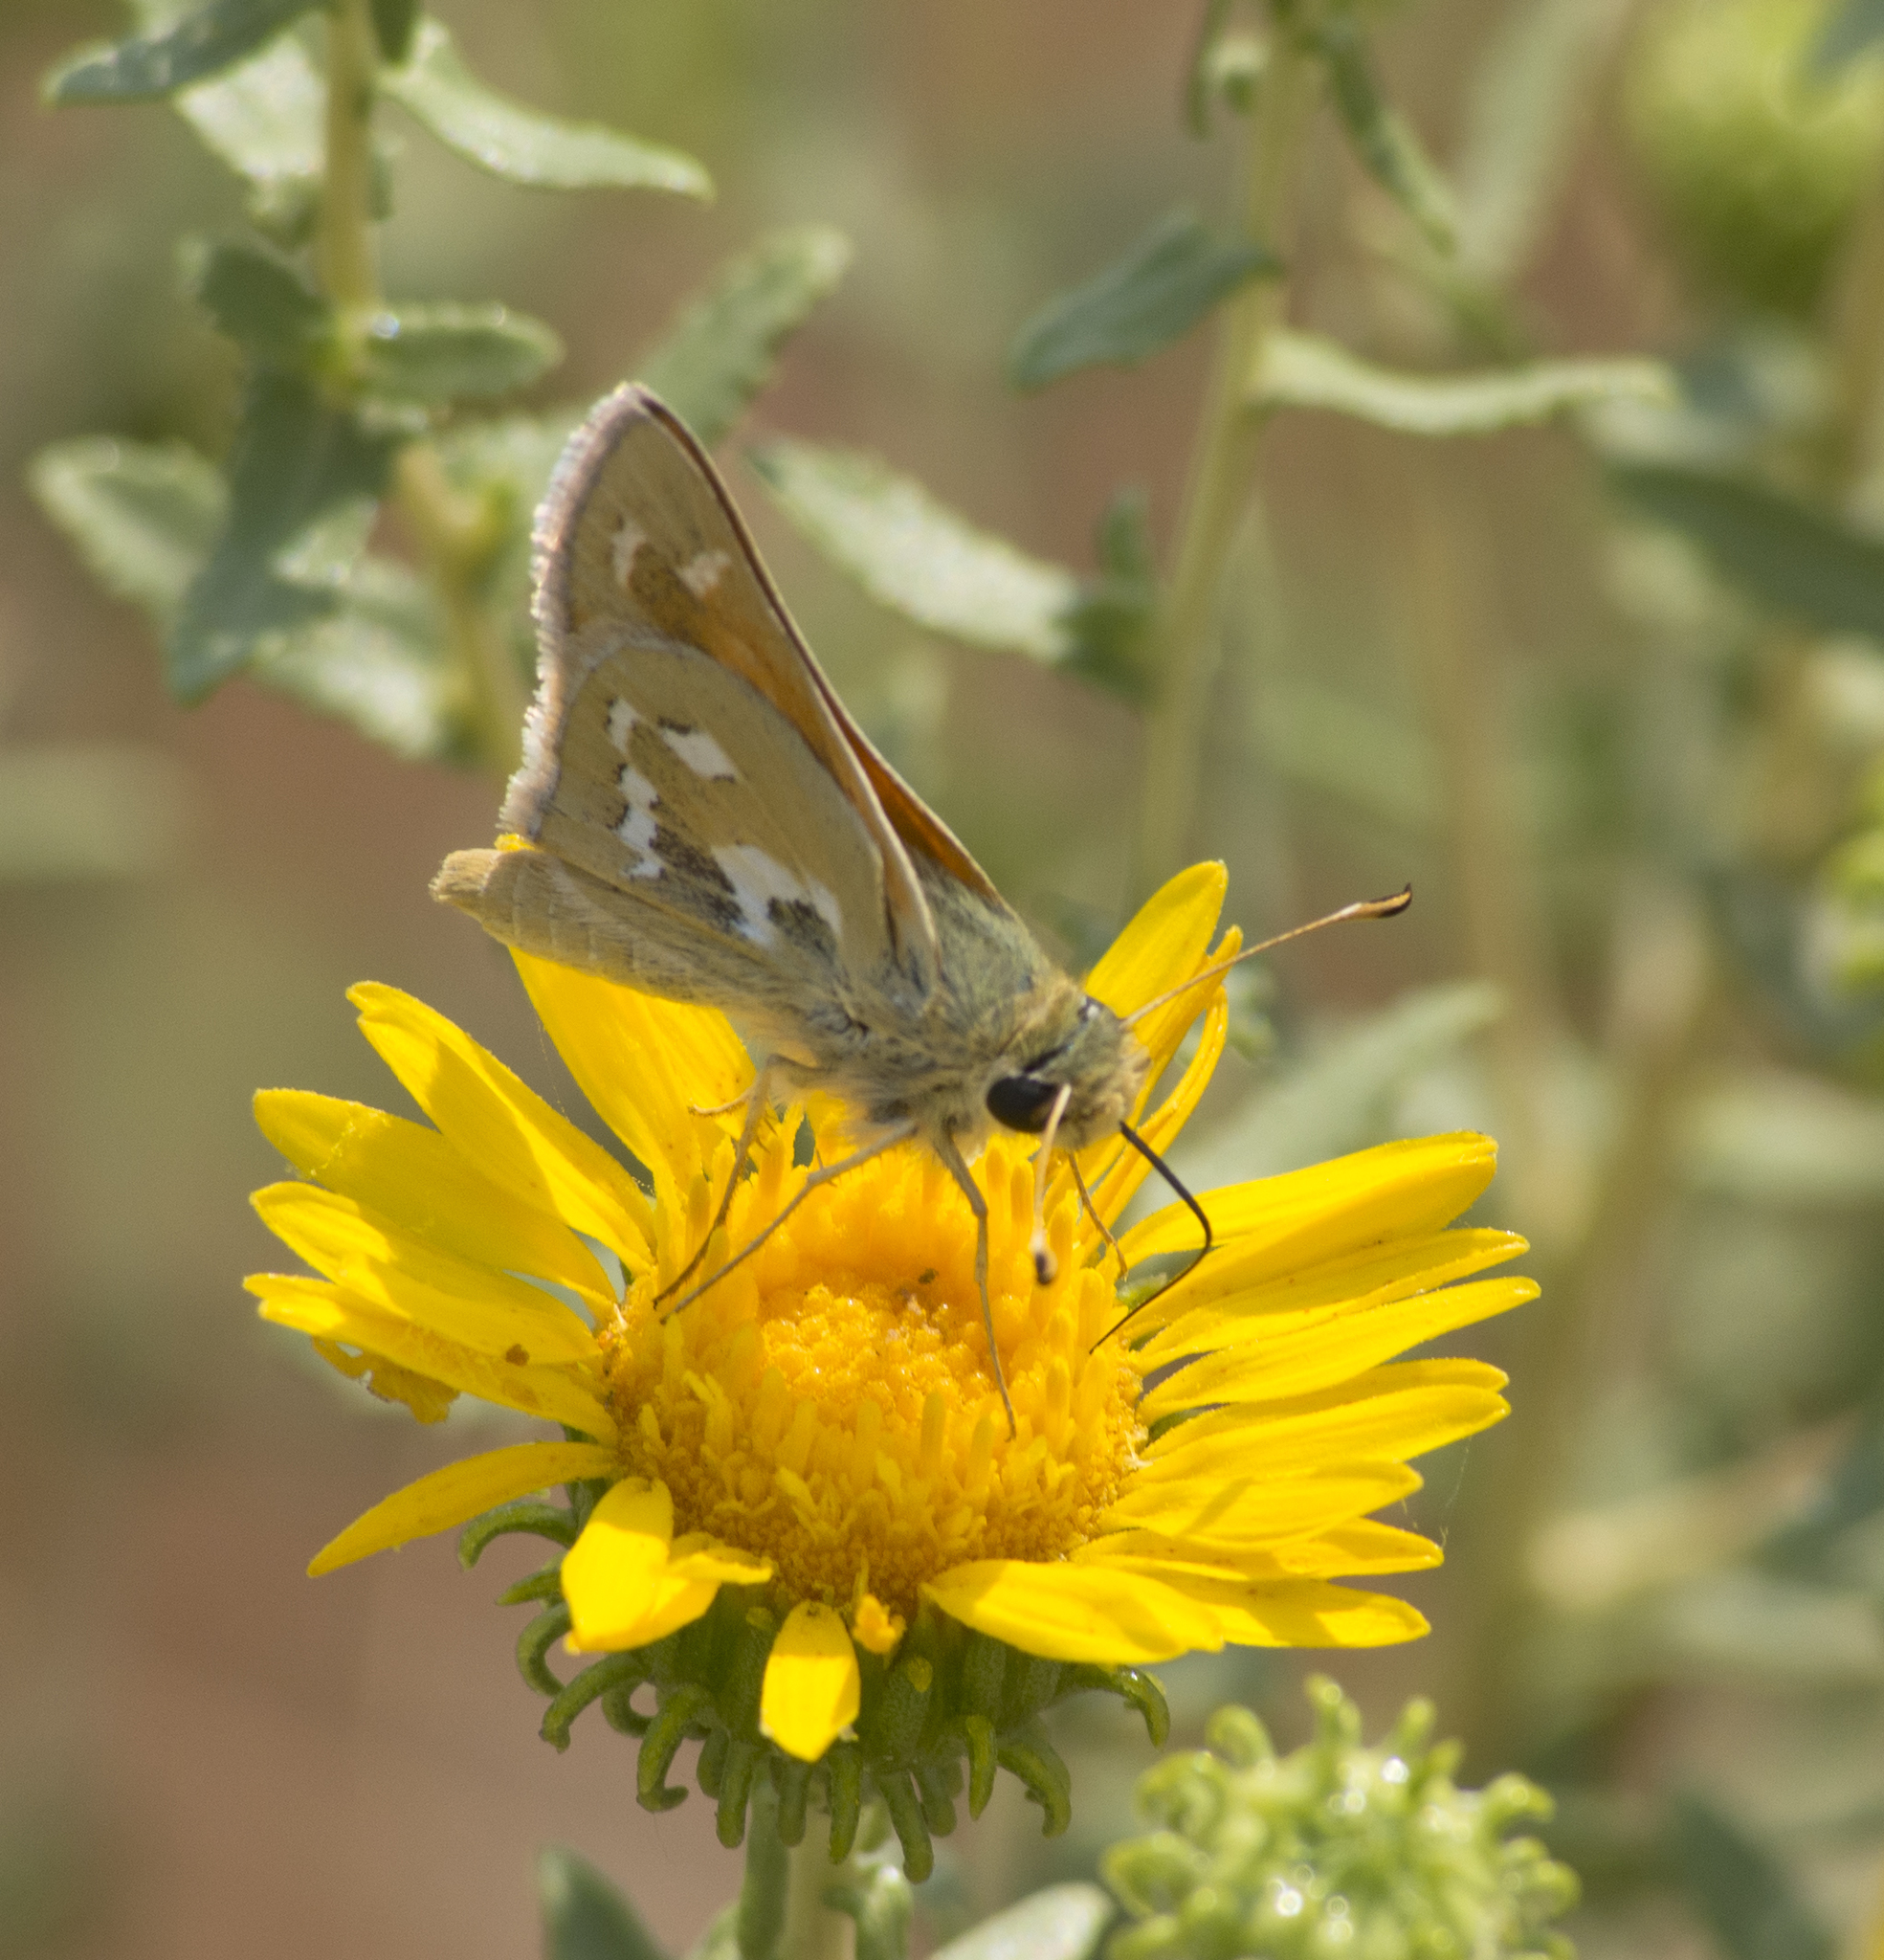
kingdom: Animalia
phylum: Arthropoda
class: Insecta
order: Lepidoptera
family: Hesperiidae
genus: Hesperia
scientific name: Hesperia comma
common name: Common branded skipper
